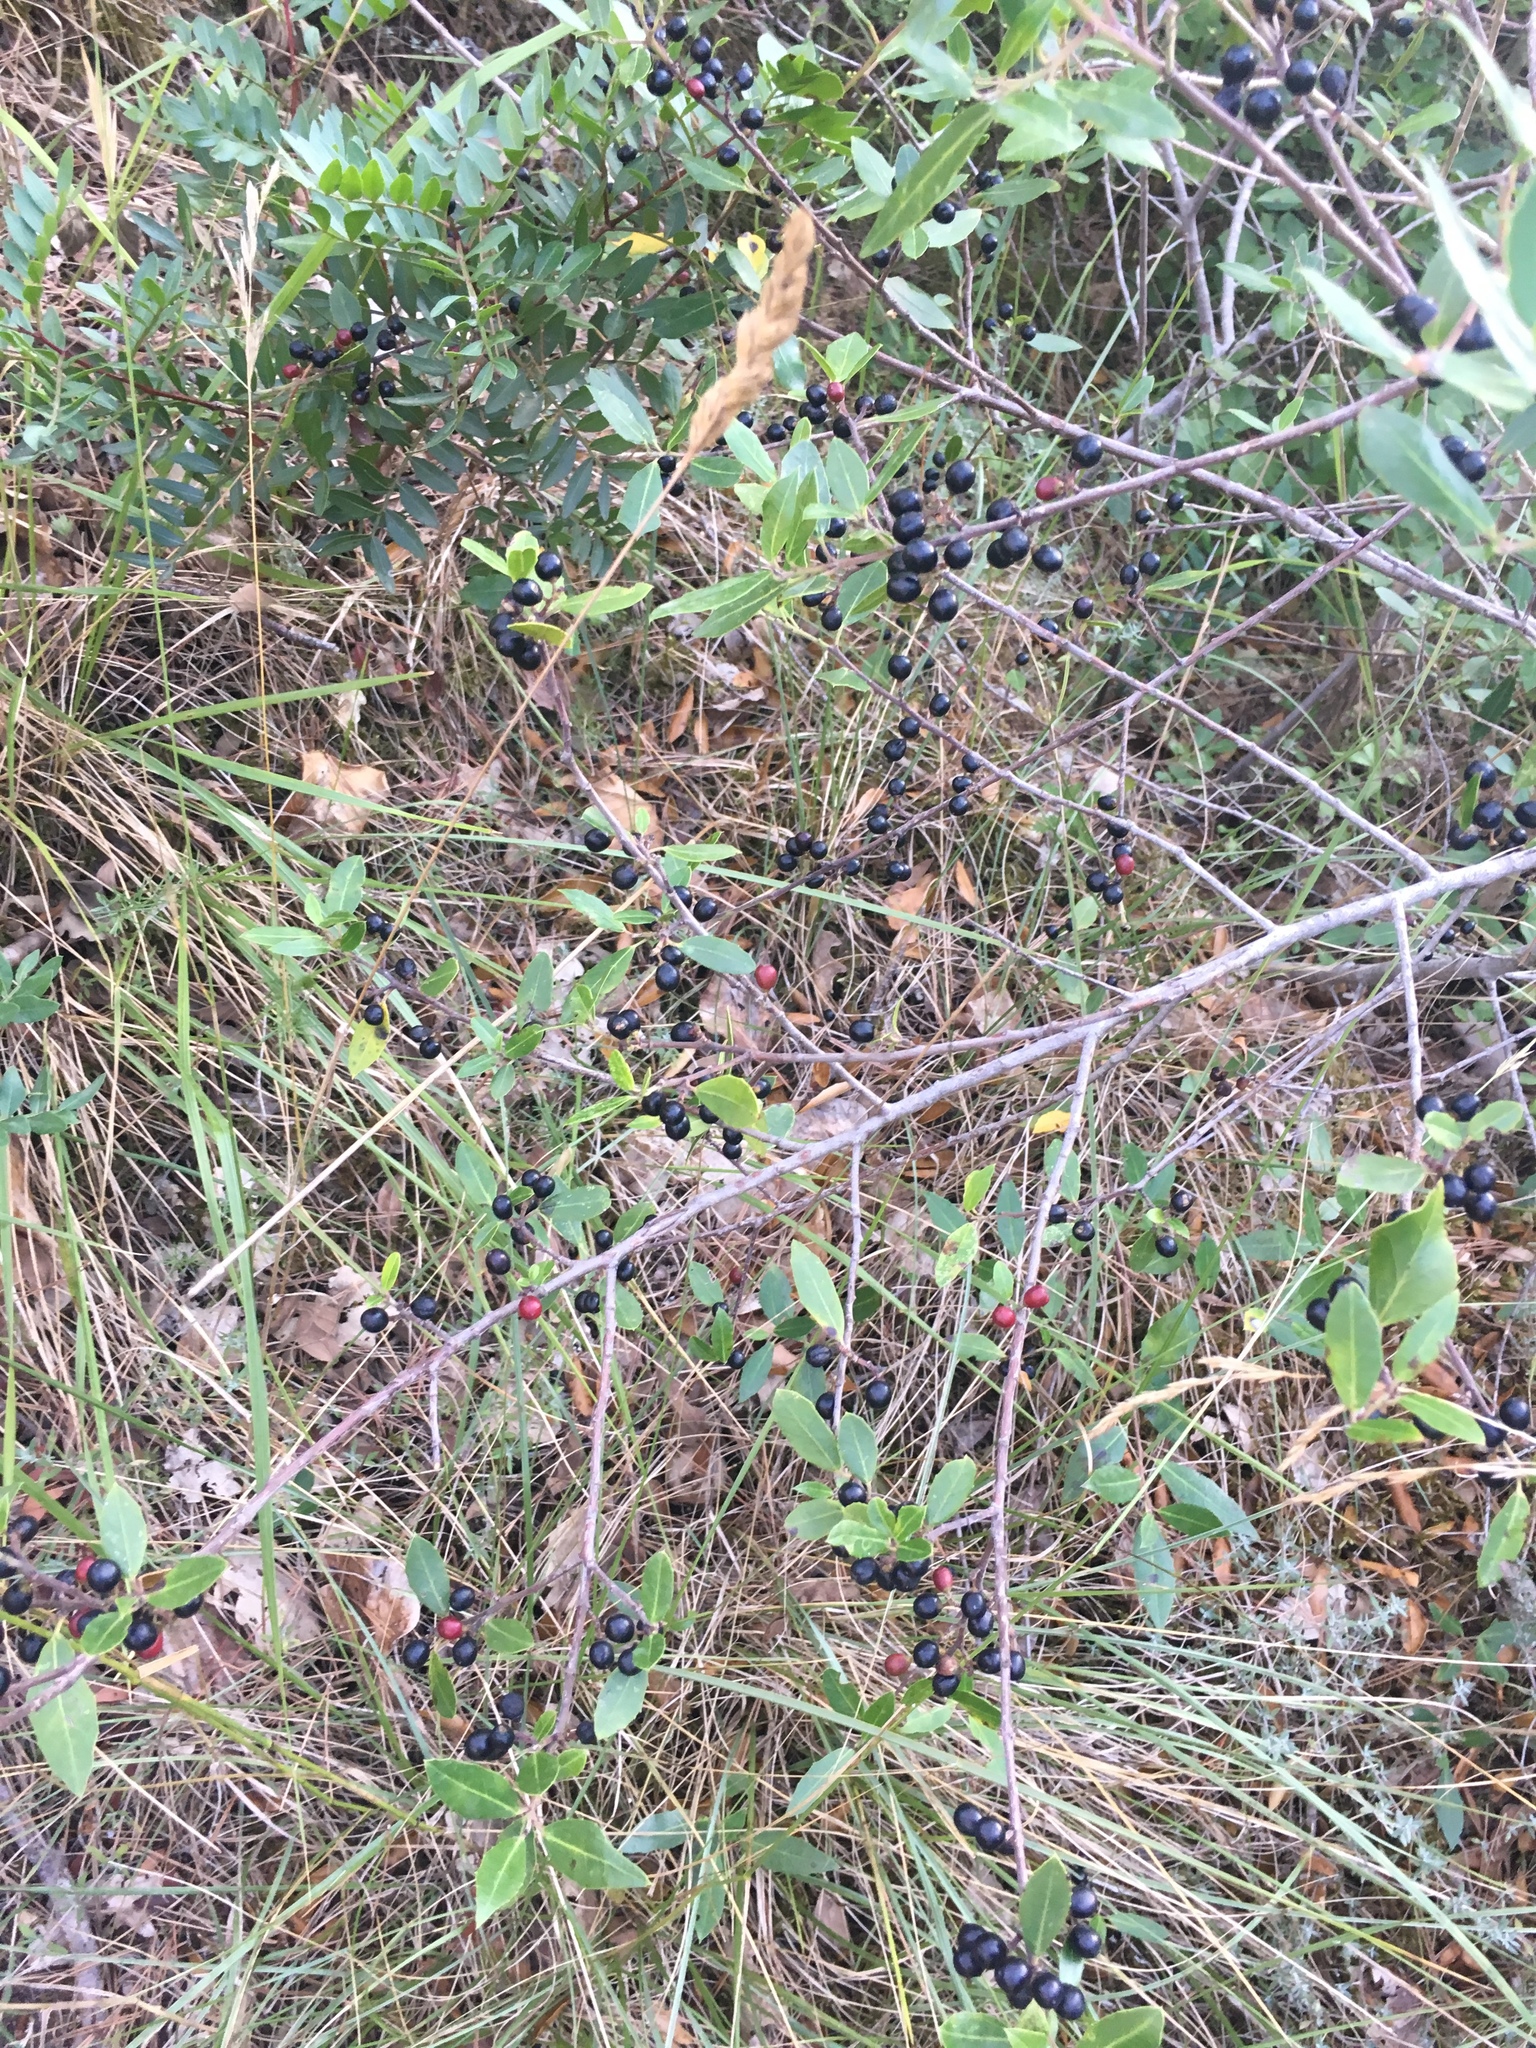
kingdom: Plantae
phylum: Tracheophyta
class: Magnoliopsida
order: Rosales
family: Rhamnaceae
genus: Rhamnus
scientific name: Rhamnus alaternus
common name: Mediterranean buckthorn
